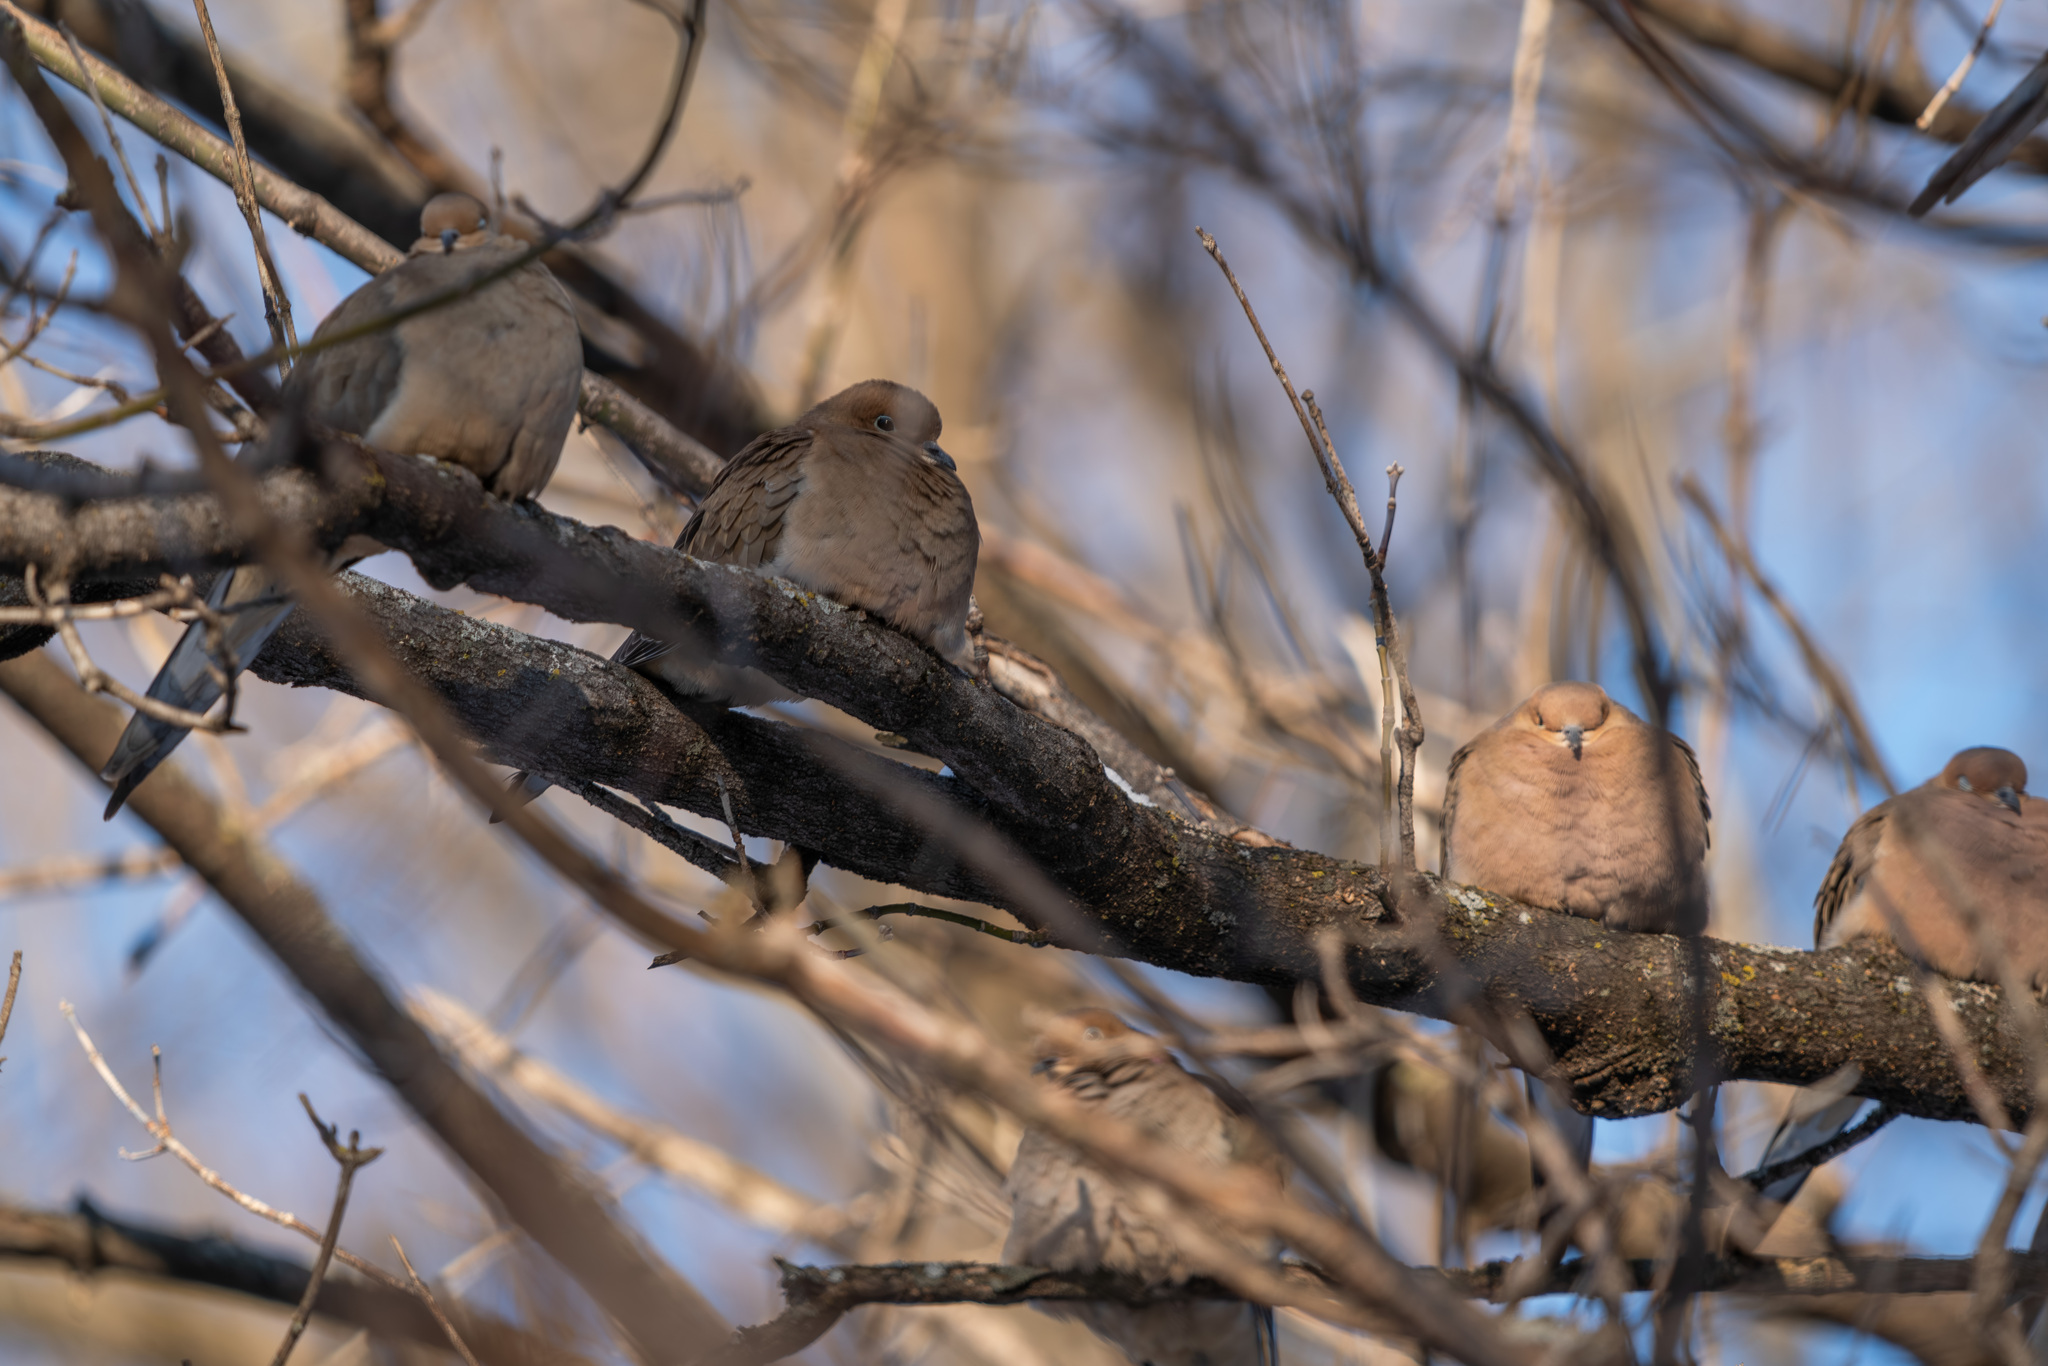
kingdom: Animalia
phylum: Chordata
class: Aves
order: Columbiformes
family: Columbidae
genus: Zenaida
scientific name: Zenaida macroura
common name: Mourning dove
